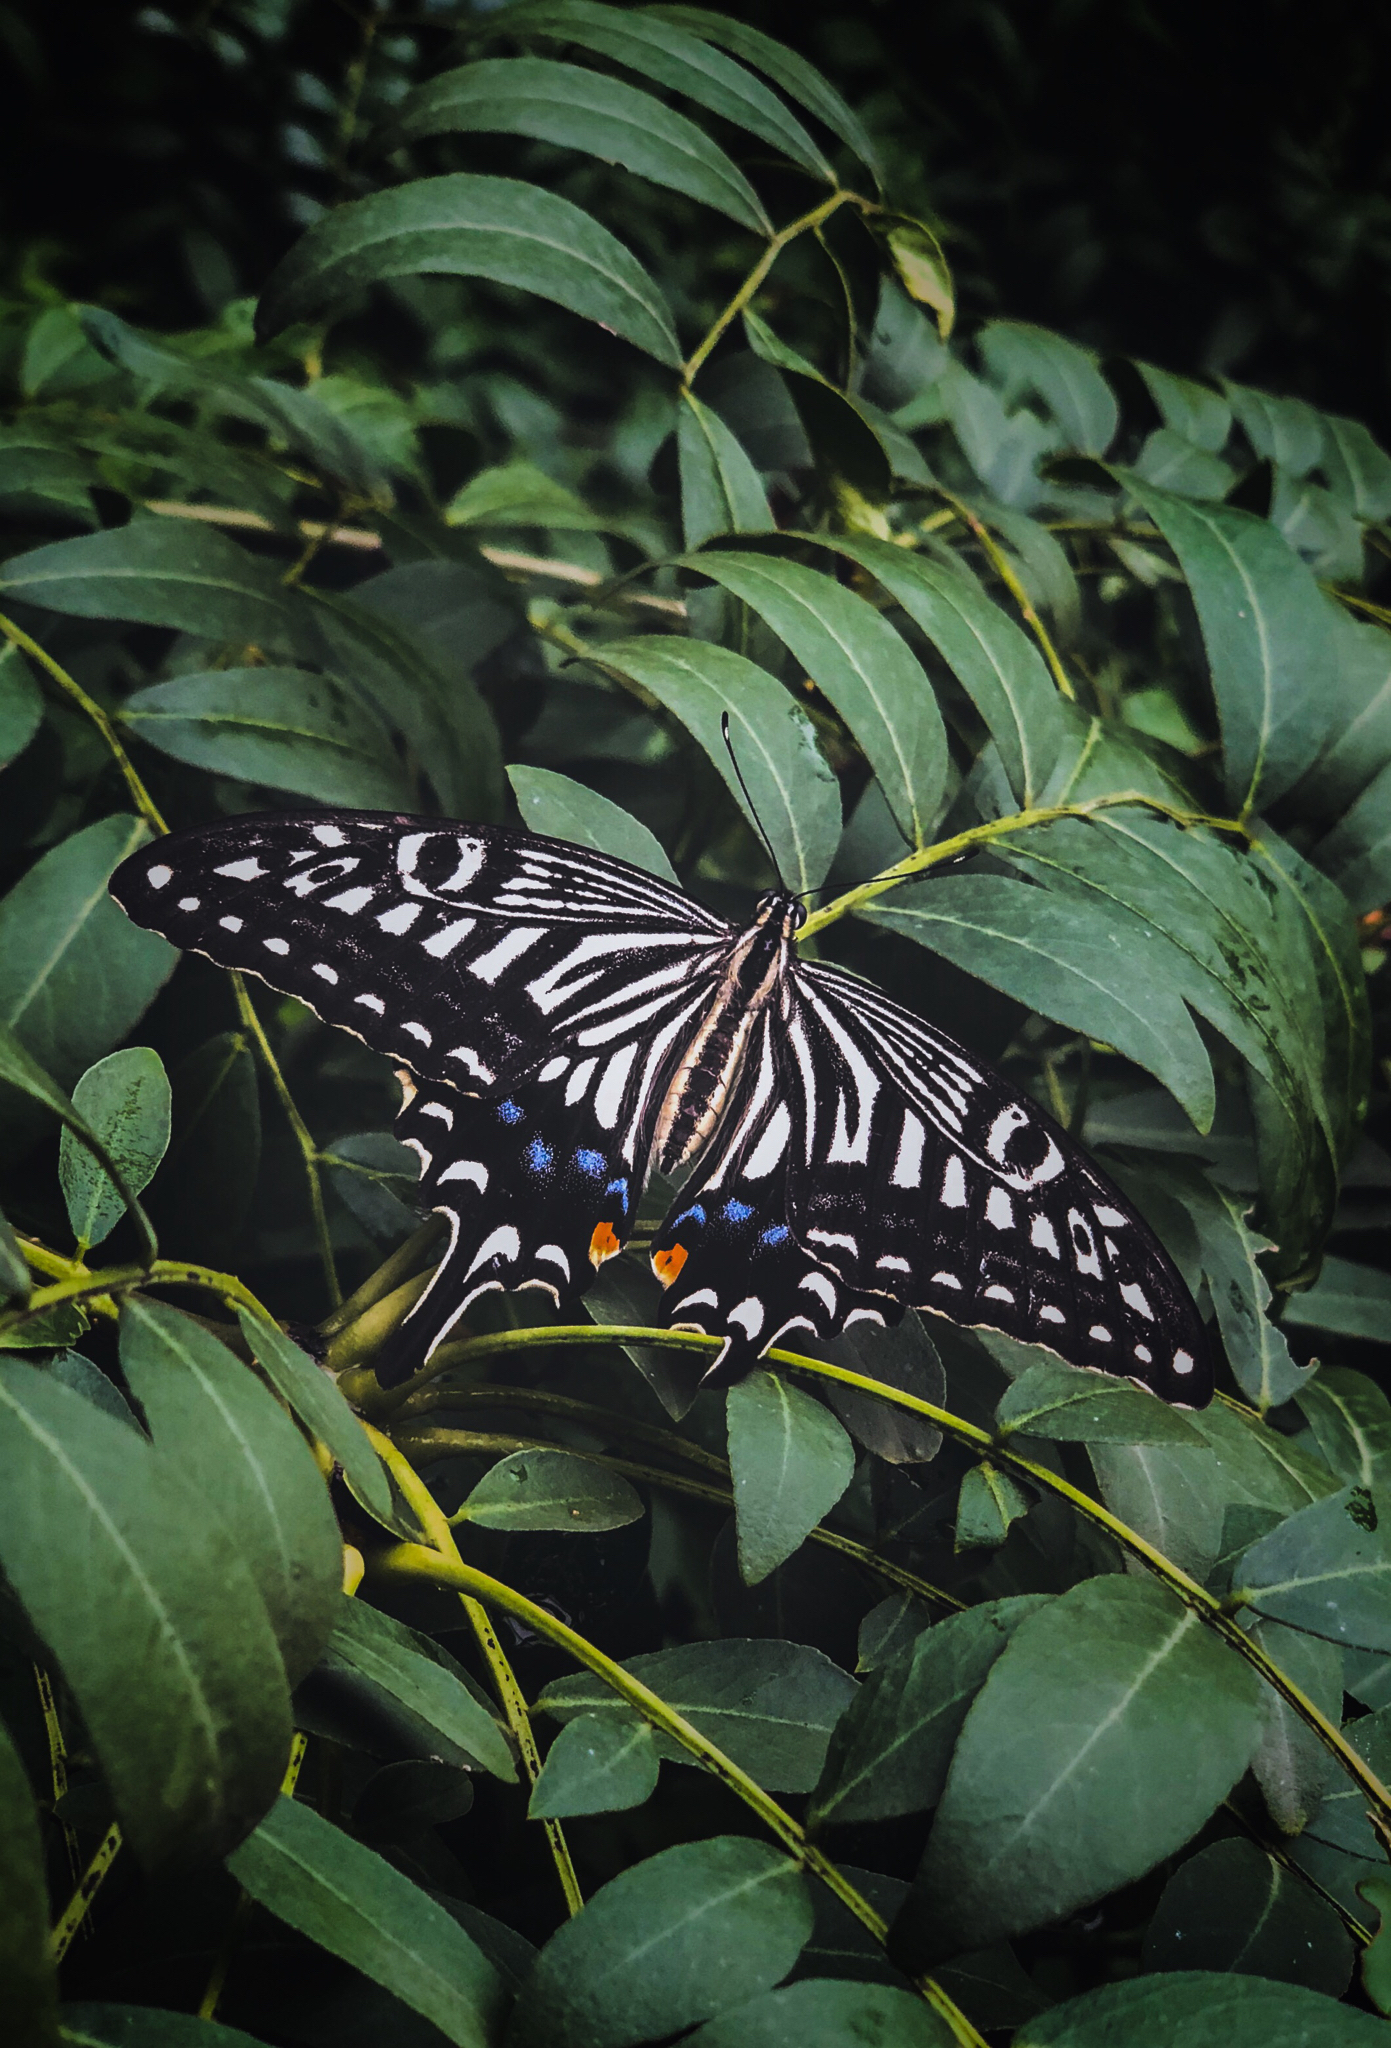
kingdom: Animalia
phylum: Arthropoda
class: Insecta
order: Lepidoptera
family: Papilionidae
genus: Papilio
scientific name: Papilio xuthus
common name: Asian swallowtail
